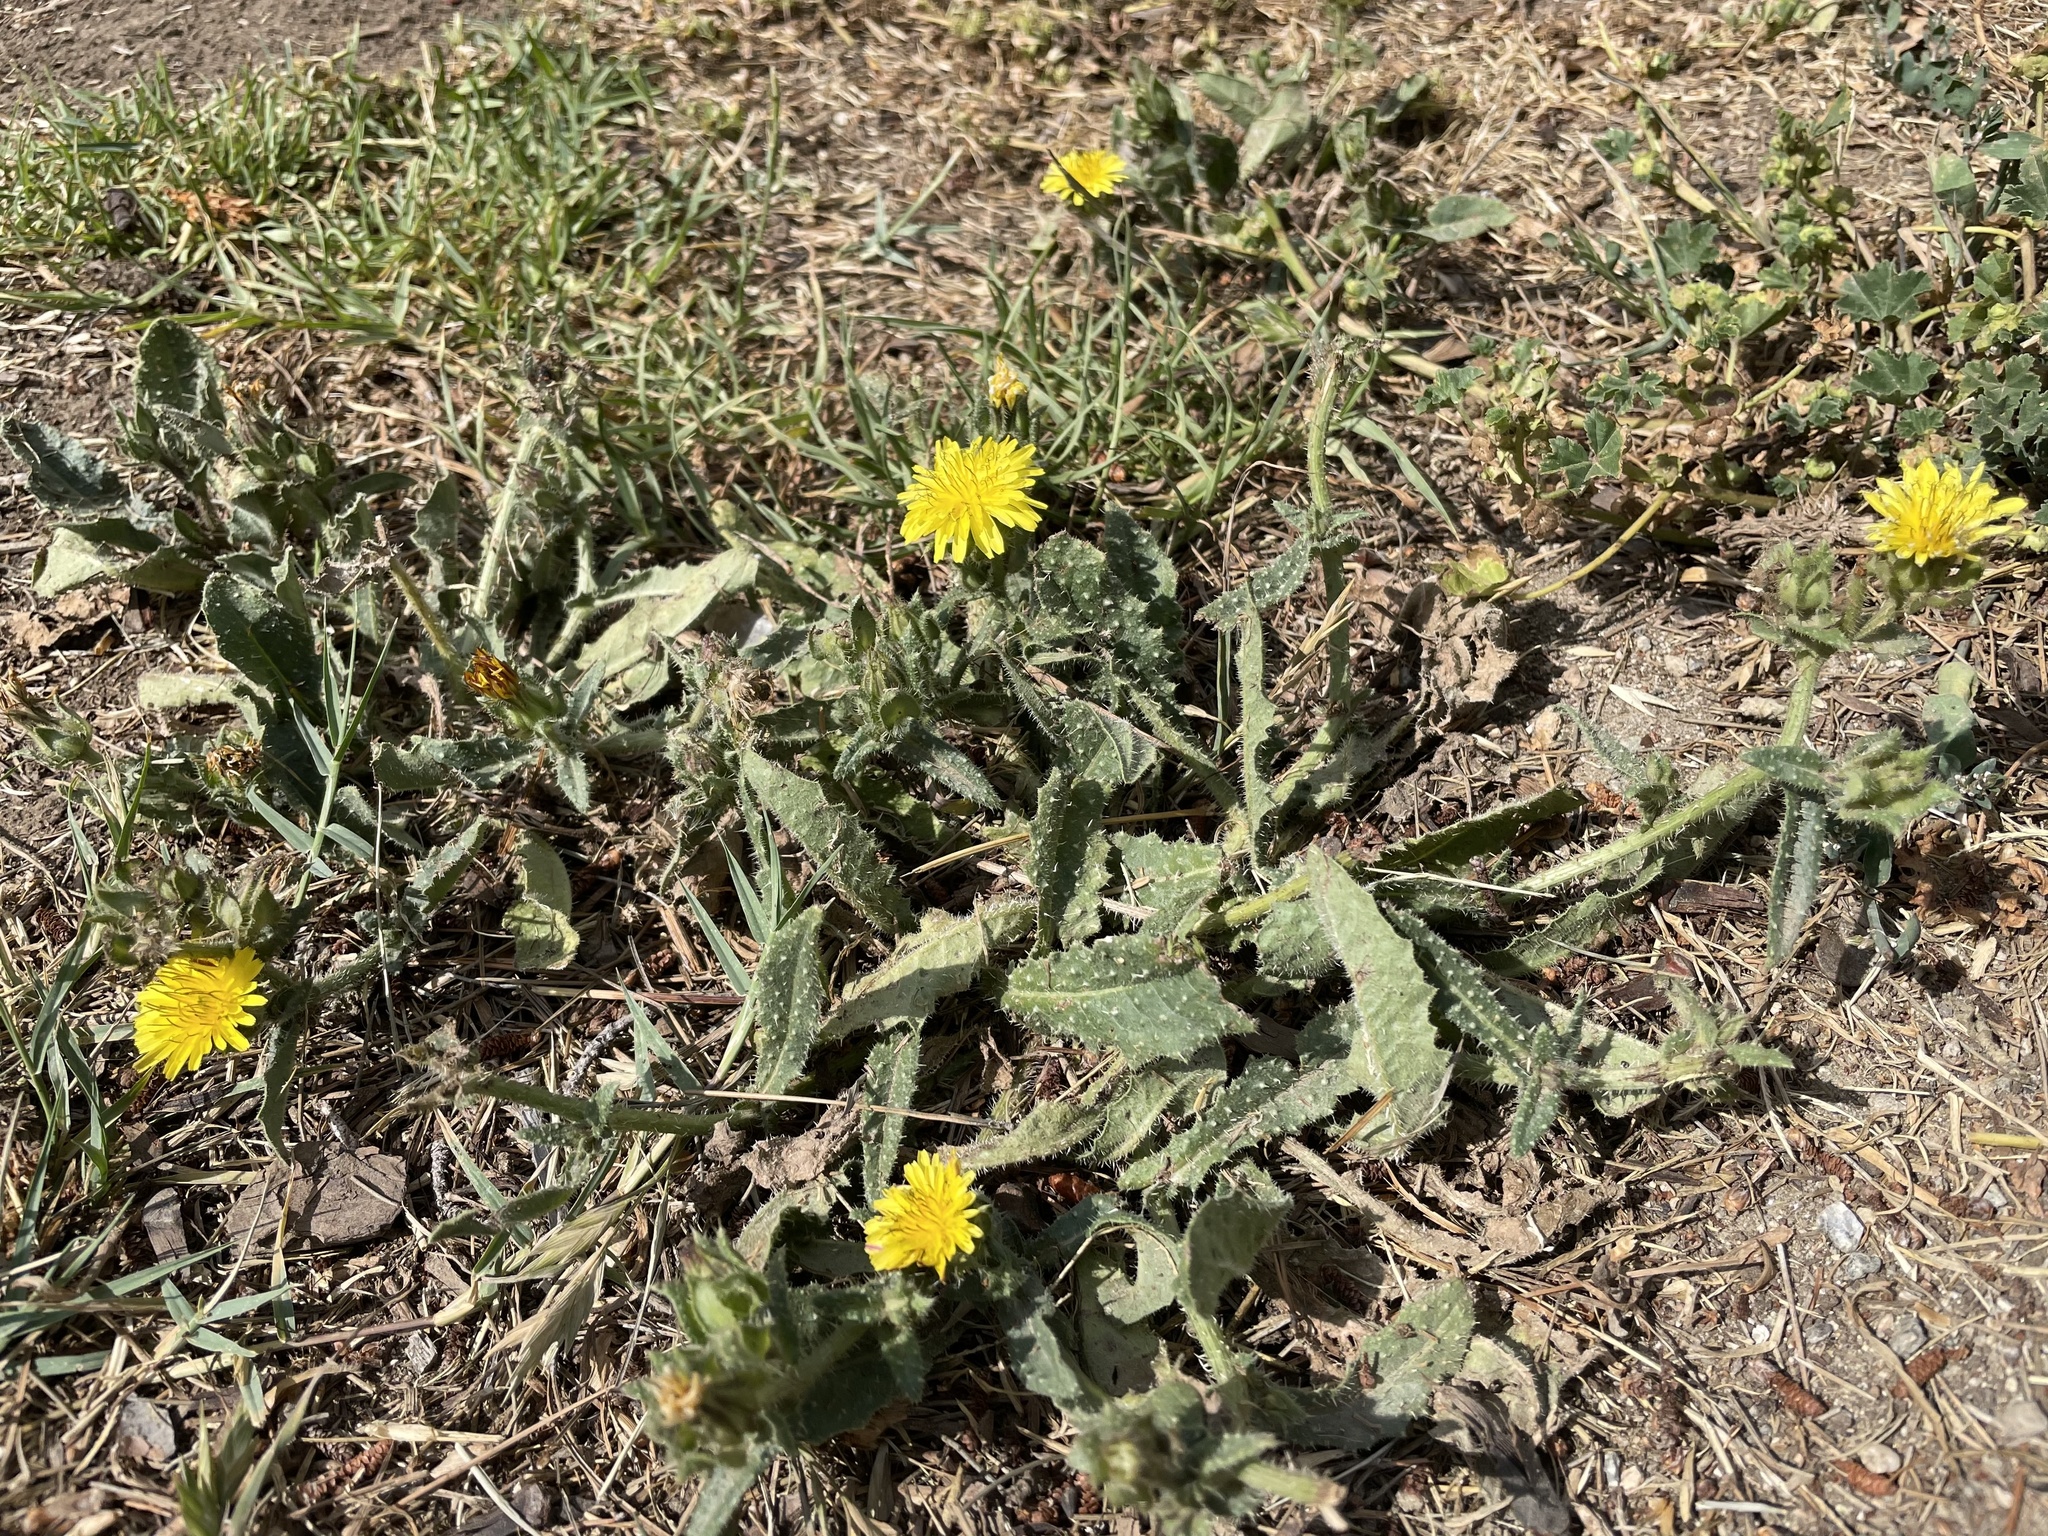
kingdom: Plantae
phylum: Tracheophyta
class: Magnoliopsida
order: Asterales
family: Asteraceae
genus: Helminthotheca
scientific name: Helminthotheca echioides
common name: Ox-tongue
